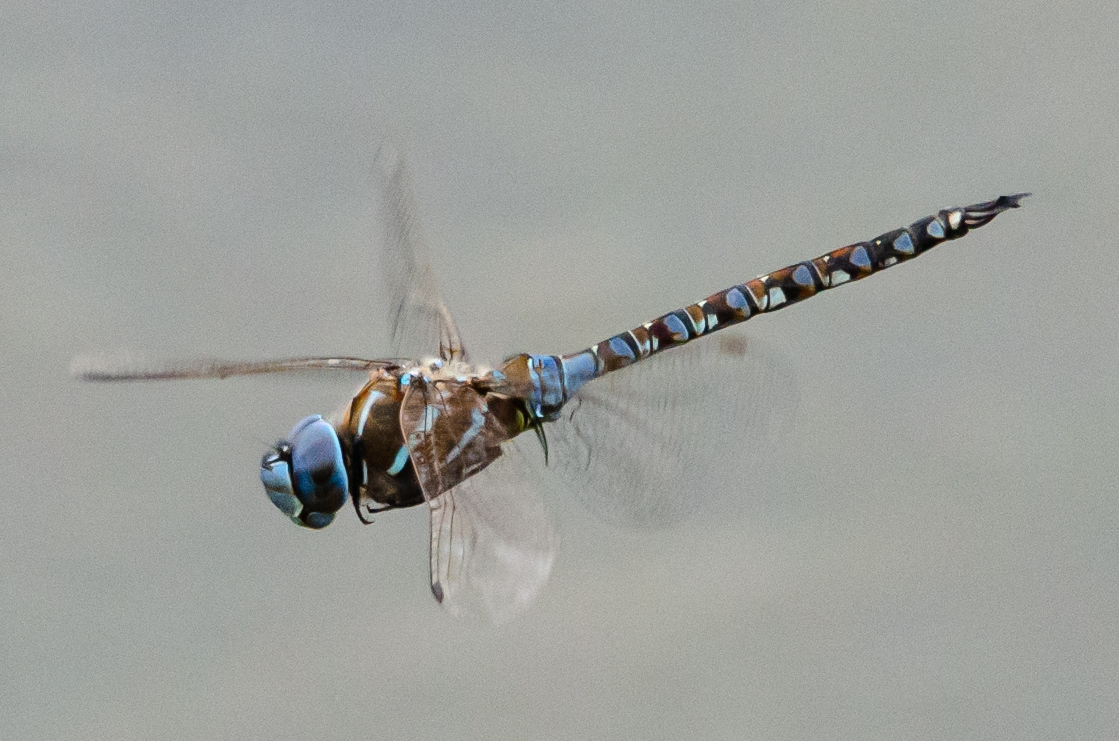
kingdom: Animalia
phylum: Arthropoda
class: Insecta
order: Odonata
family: Aeshnidae
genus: Rhionaeschna
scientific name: Rhionaeschna multicolor
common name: Blue-eyed darner
